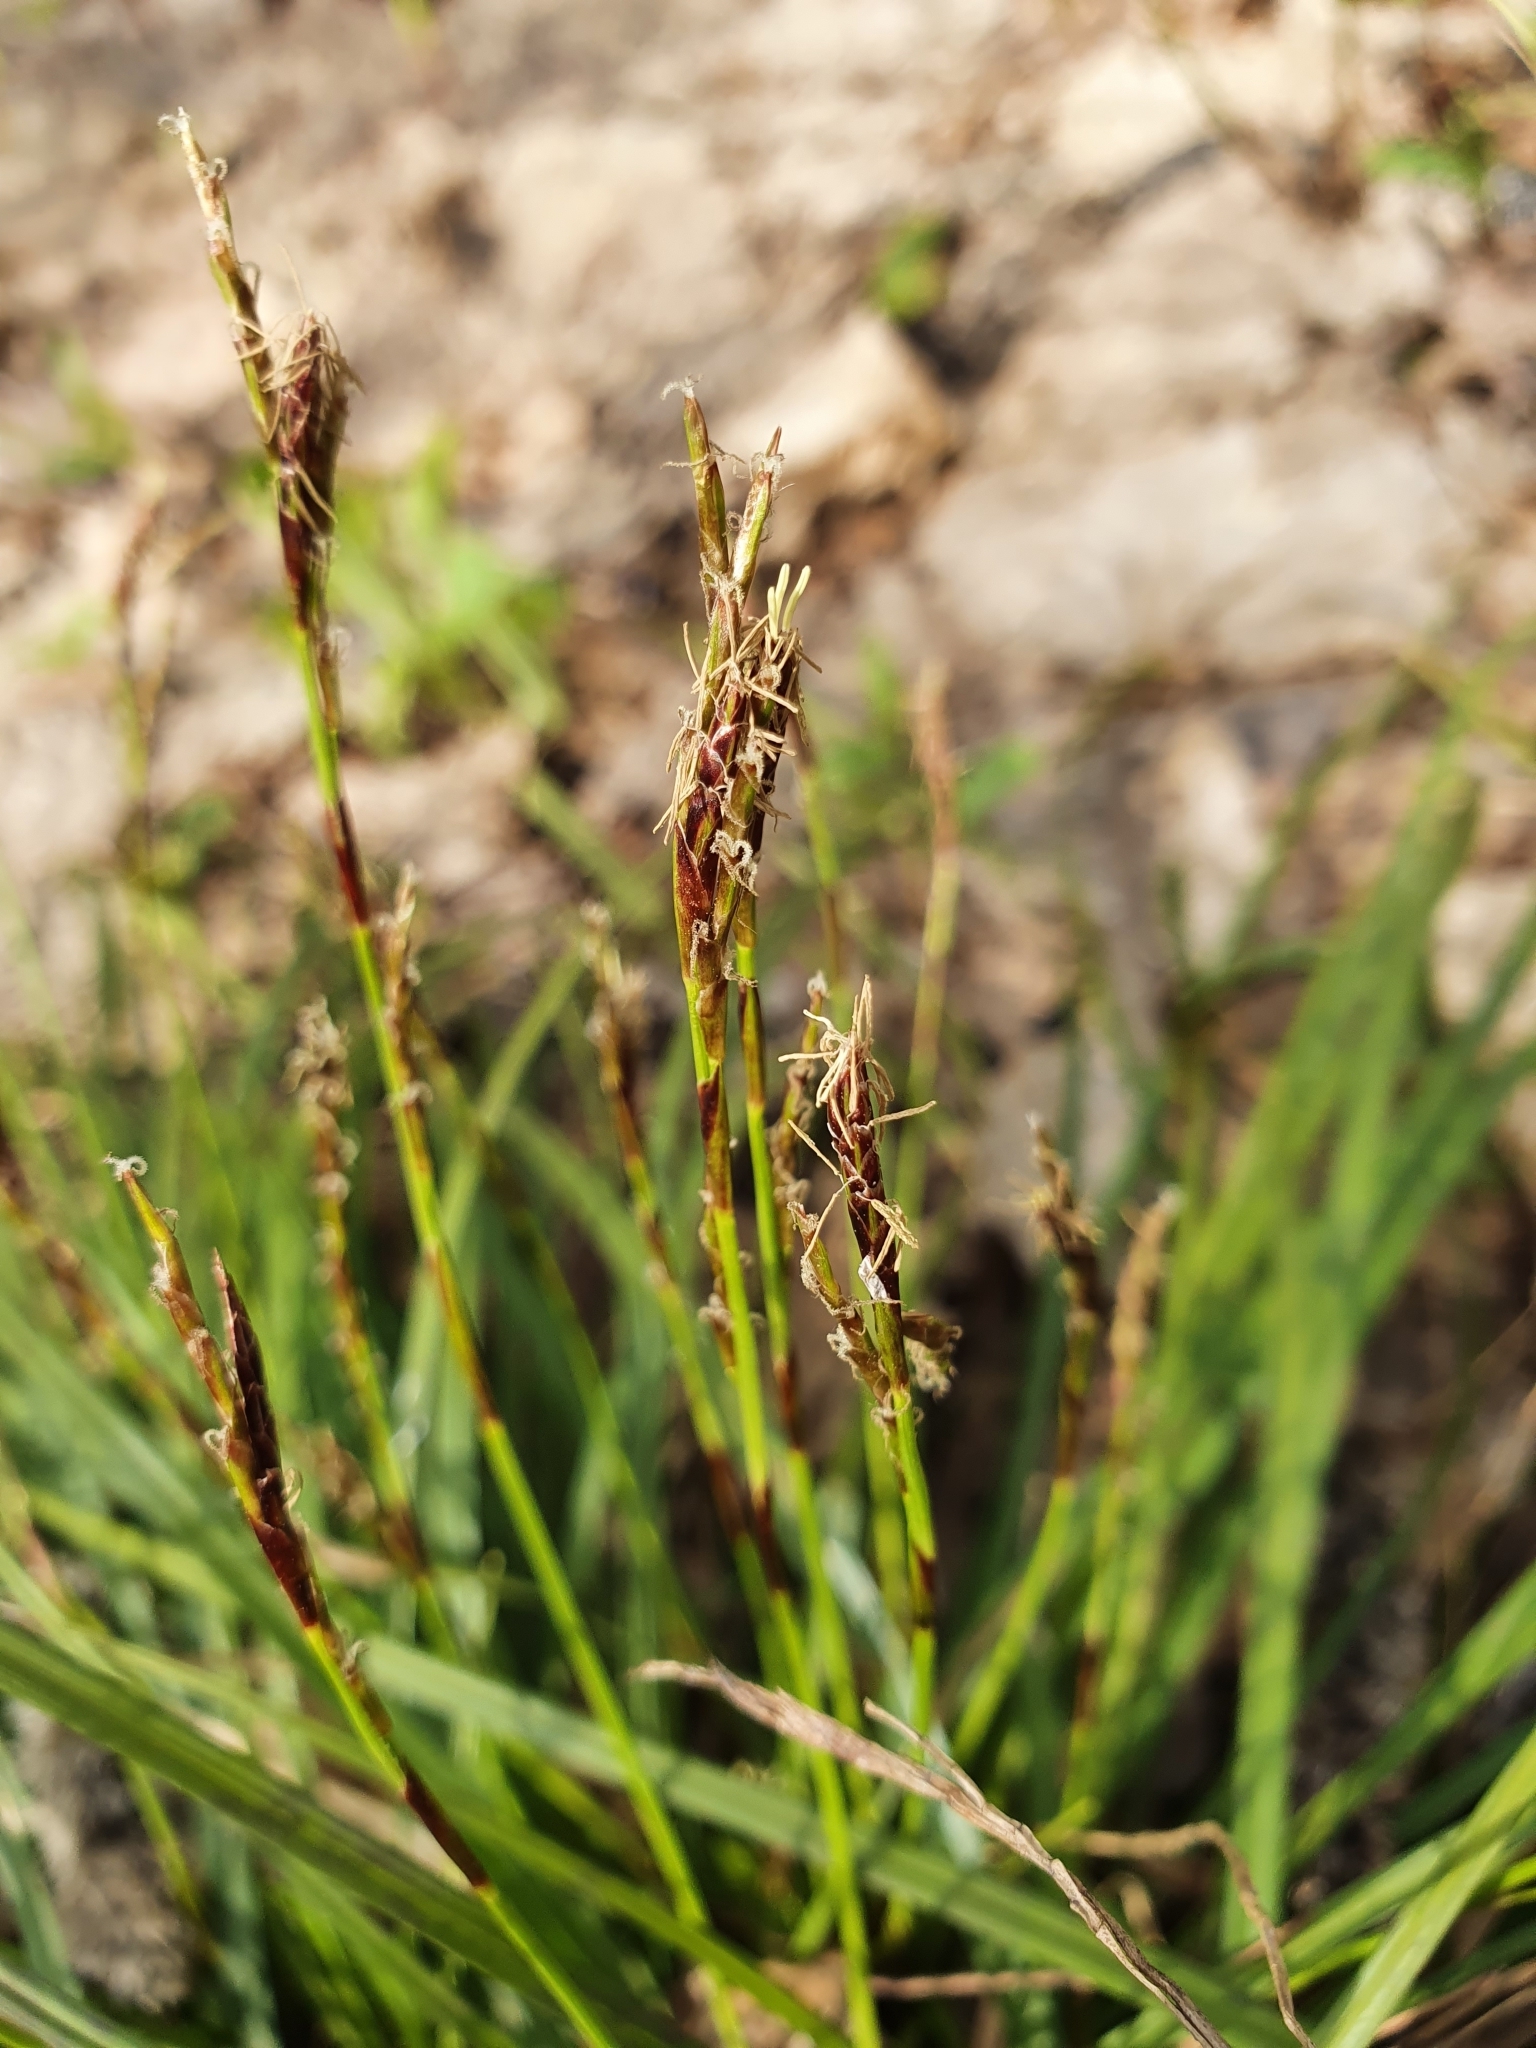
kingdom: Plantae
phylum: Tracheophyta
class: Liliopsida
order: Poales
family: Cyperaceae
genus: Carex
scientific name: Carex digitata
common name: Fingered sedge
